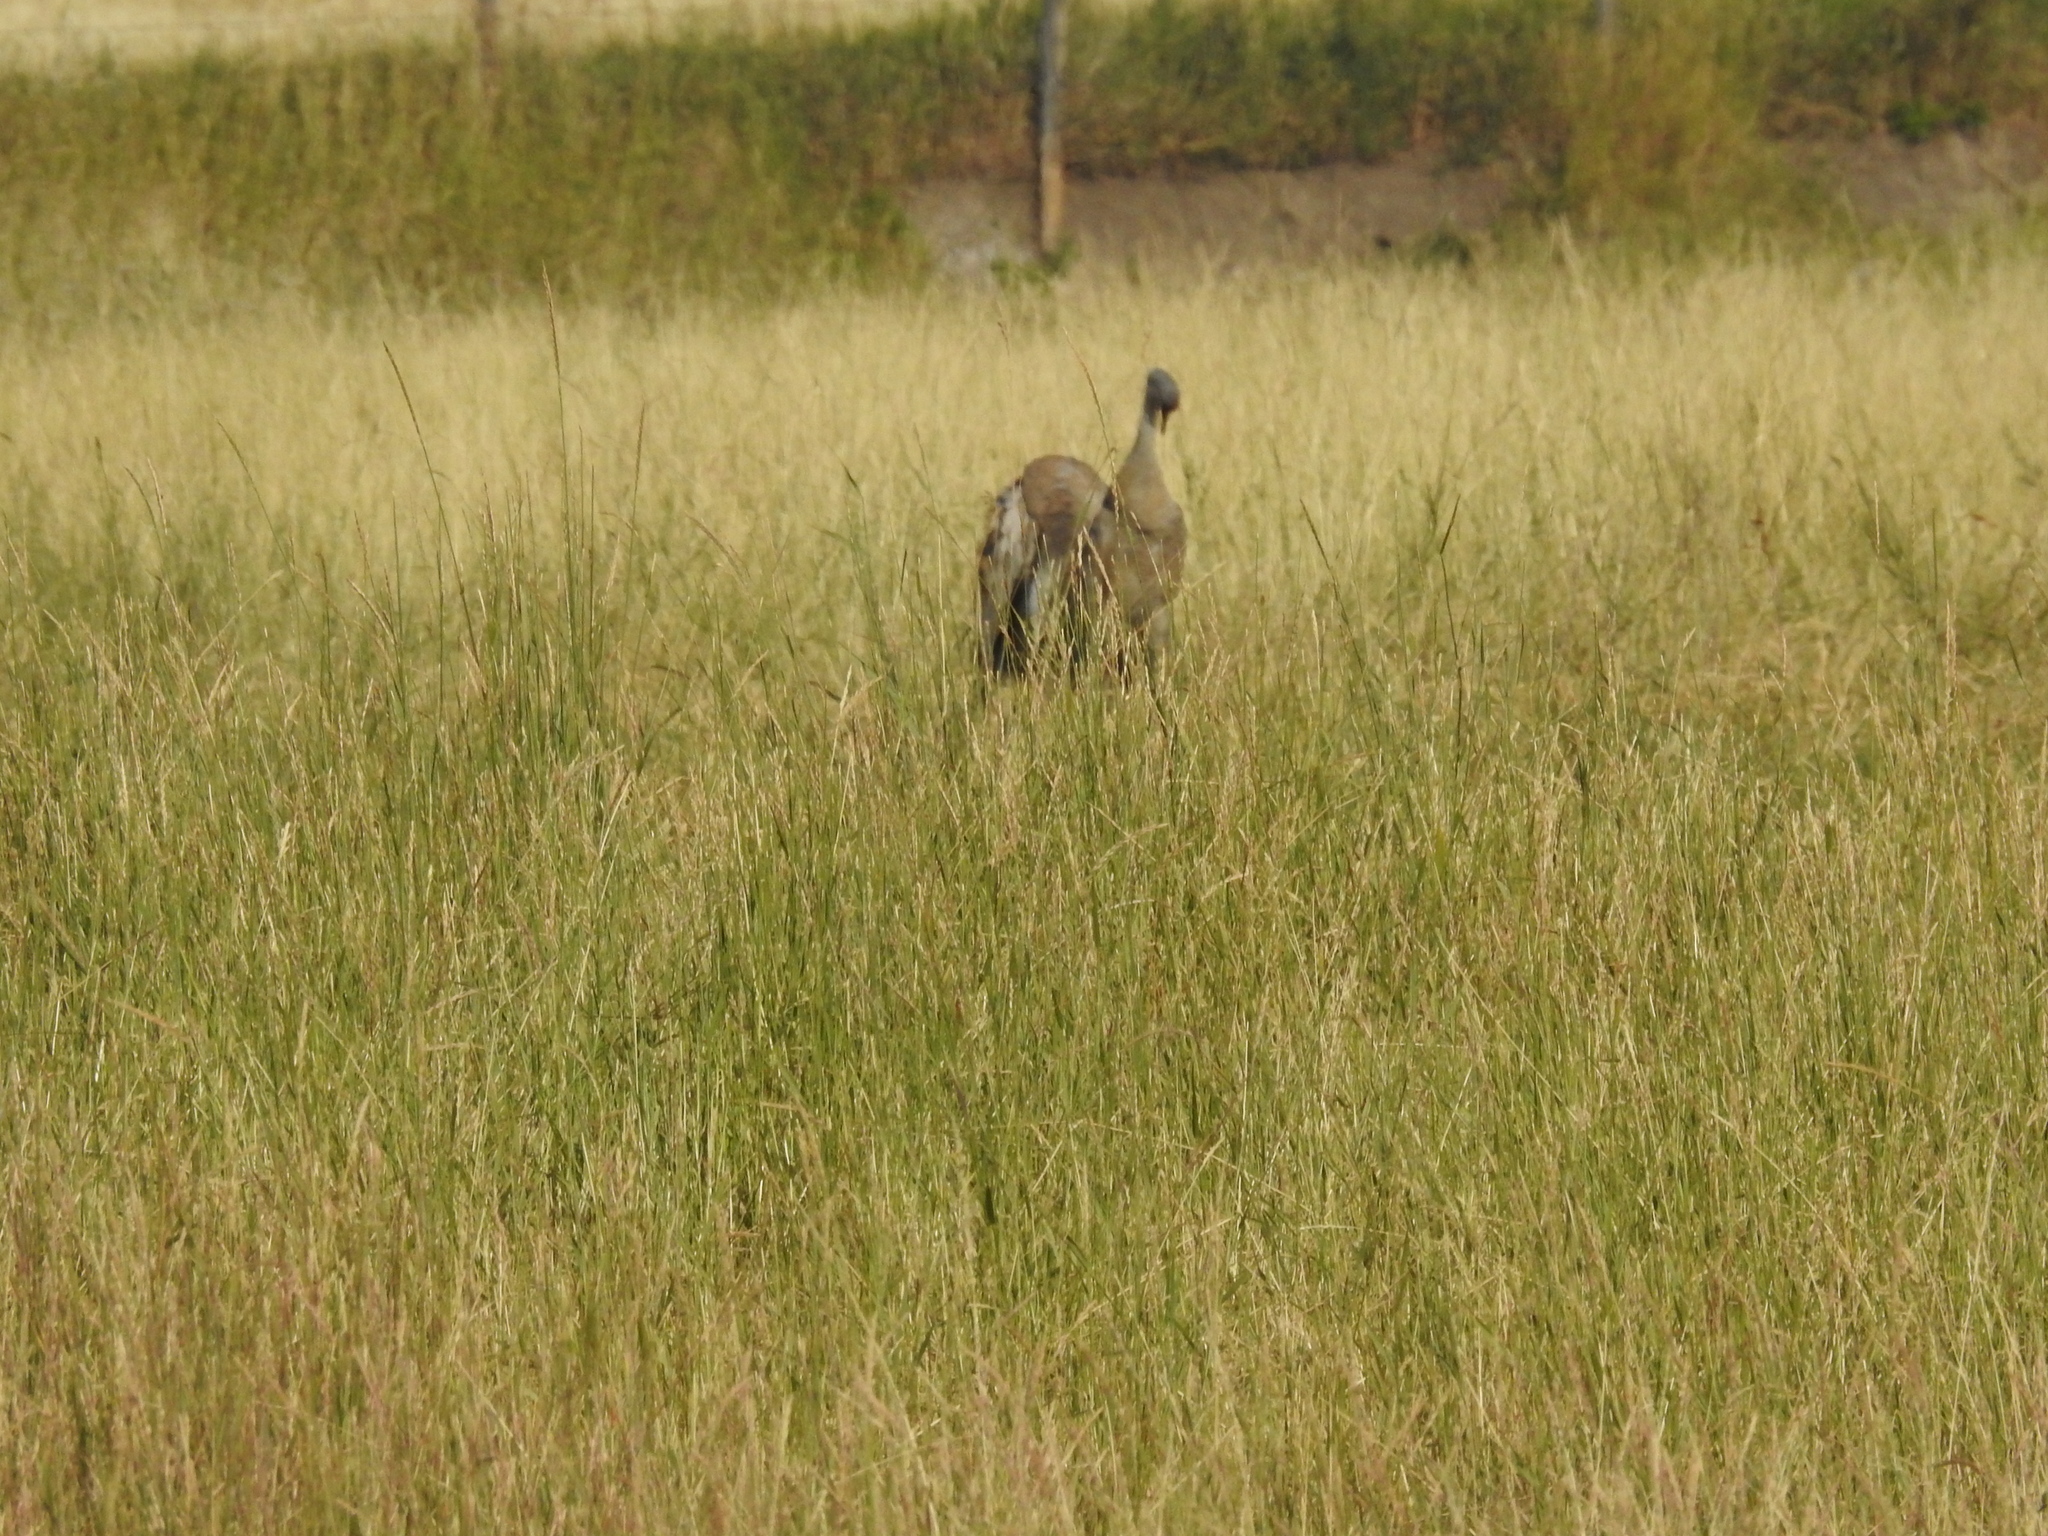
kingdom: Animalia
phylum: Chordata
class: Aves
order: Gruiformes
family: Gruidae
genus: Grus
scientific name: Grus canadensis
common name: Sandhill crane
